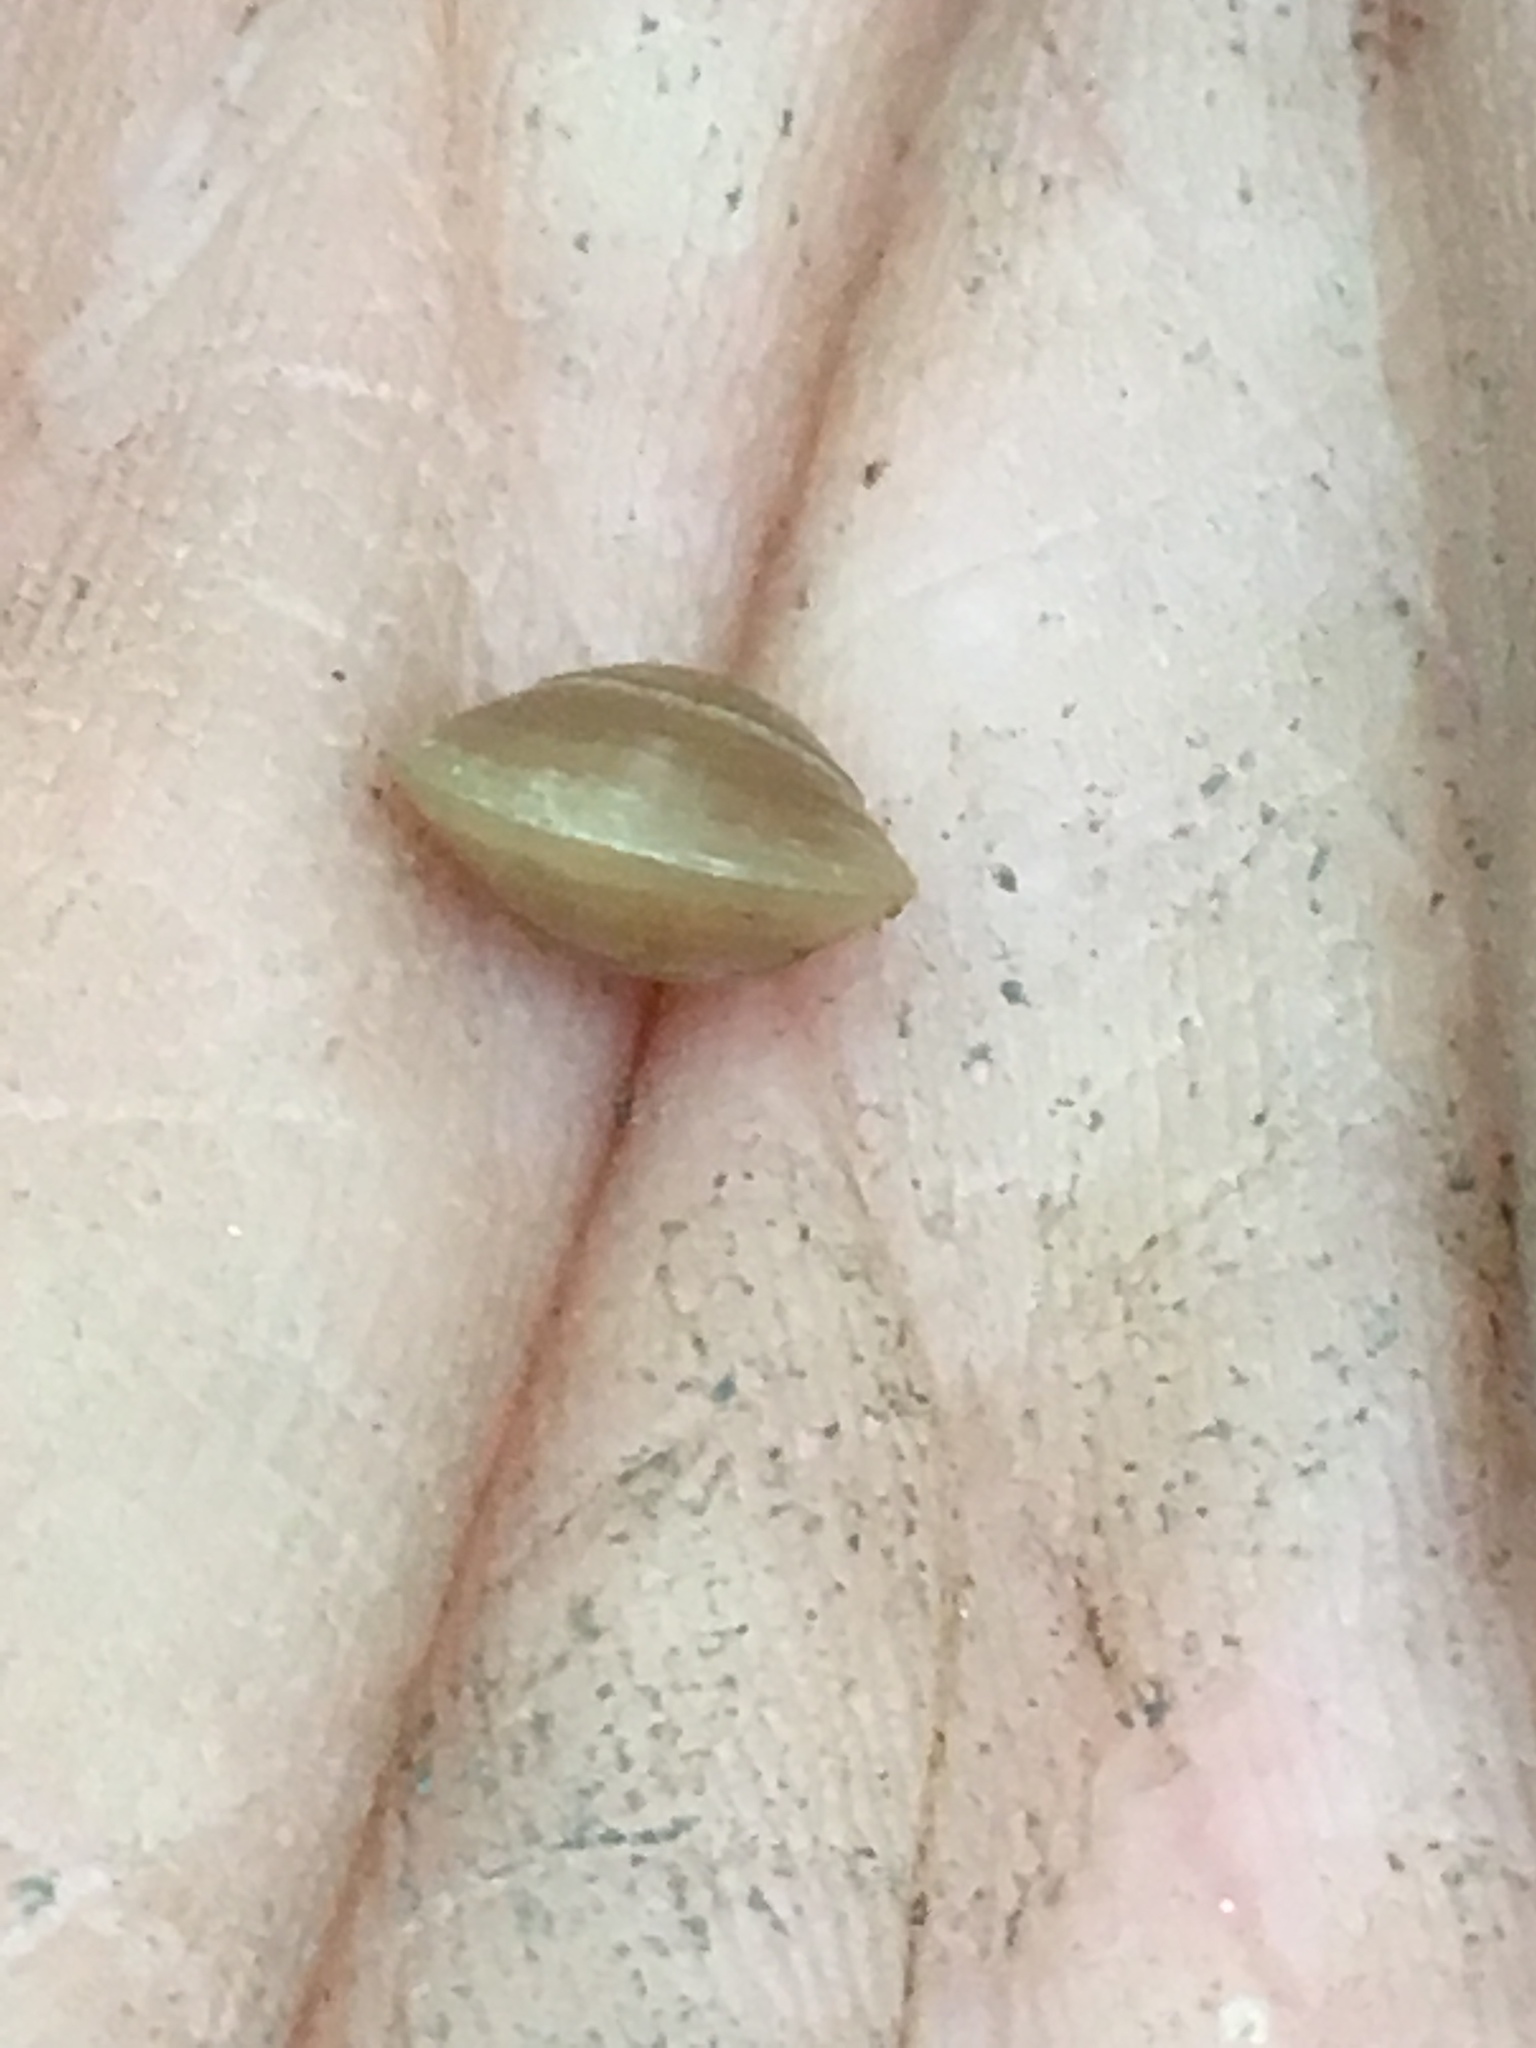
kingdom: Animalia
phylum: Mollusca
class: Bivalvia
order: Sphaeriida
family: Sphaeriidae
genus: Sphaerium
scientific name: Sphaerium occidentale
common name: Herrington fingernailclam
